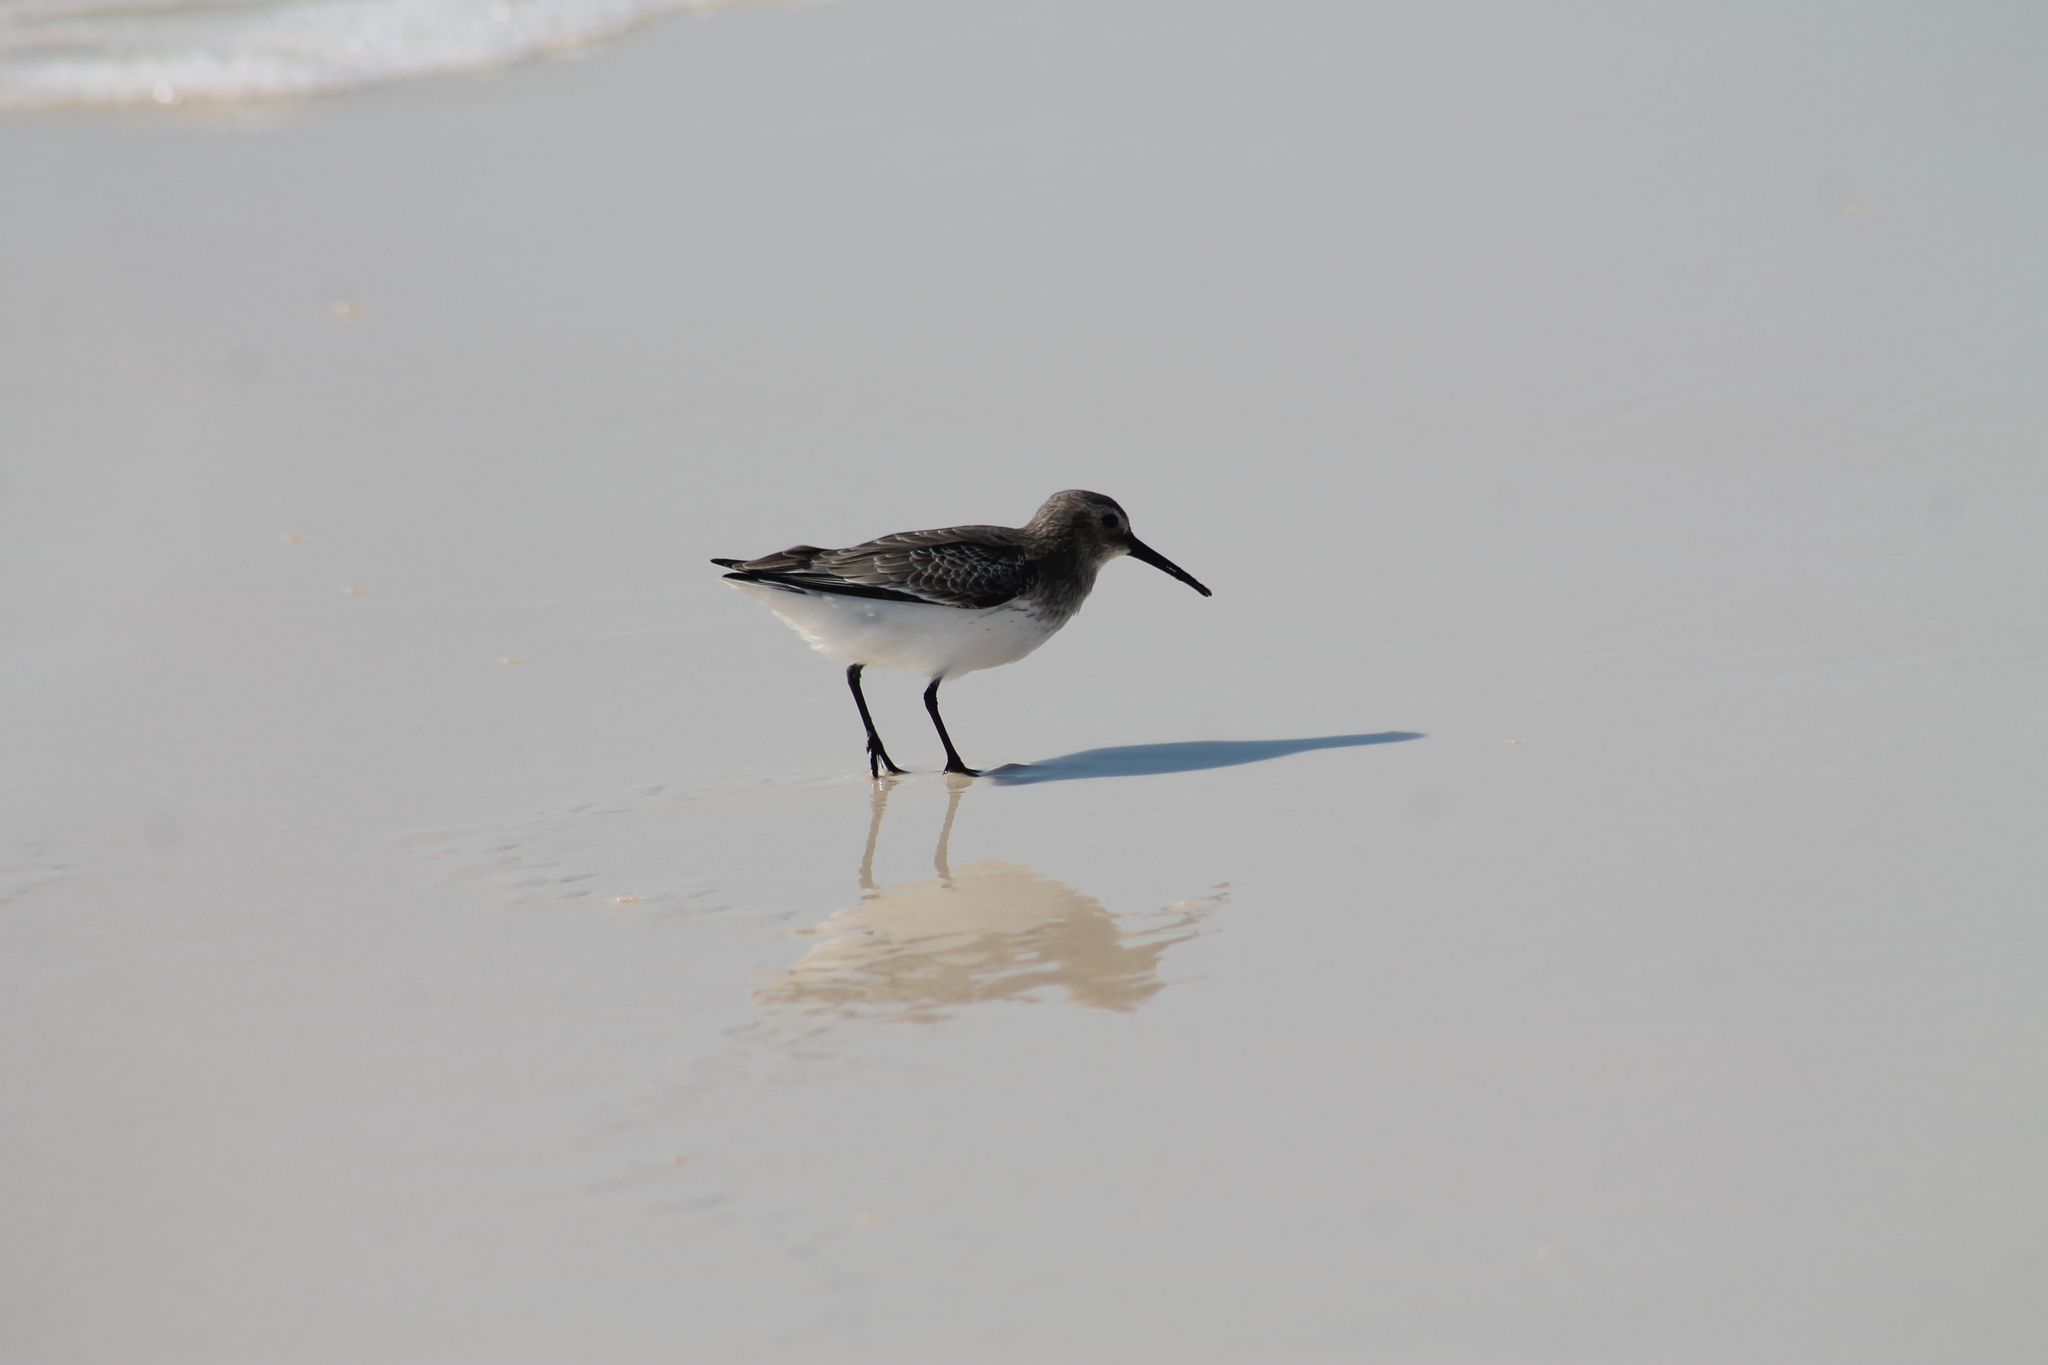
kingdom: Animalia
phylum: Chordata
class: Aves
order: Charadriiformes
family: Scolopacidae
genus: Calidris
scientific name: Calidris alpina
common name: Dunlin
